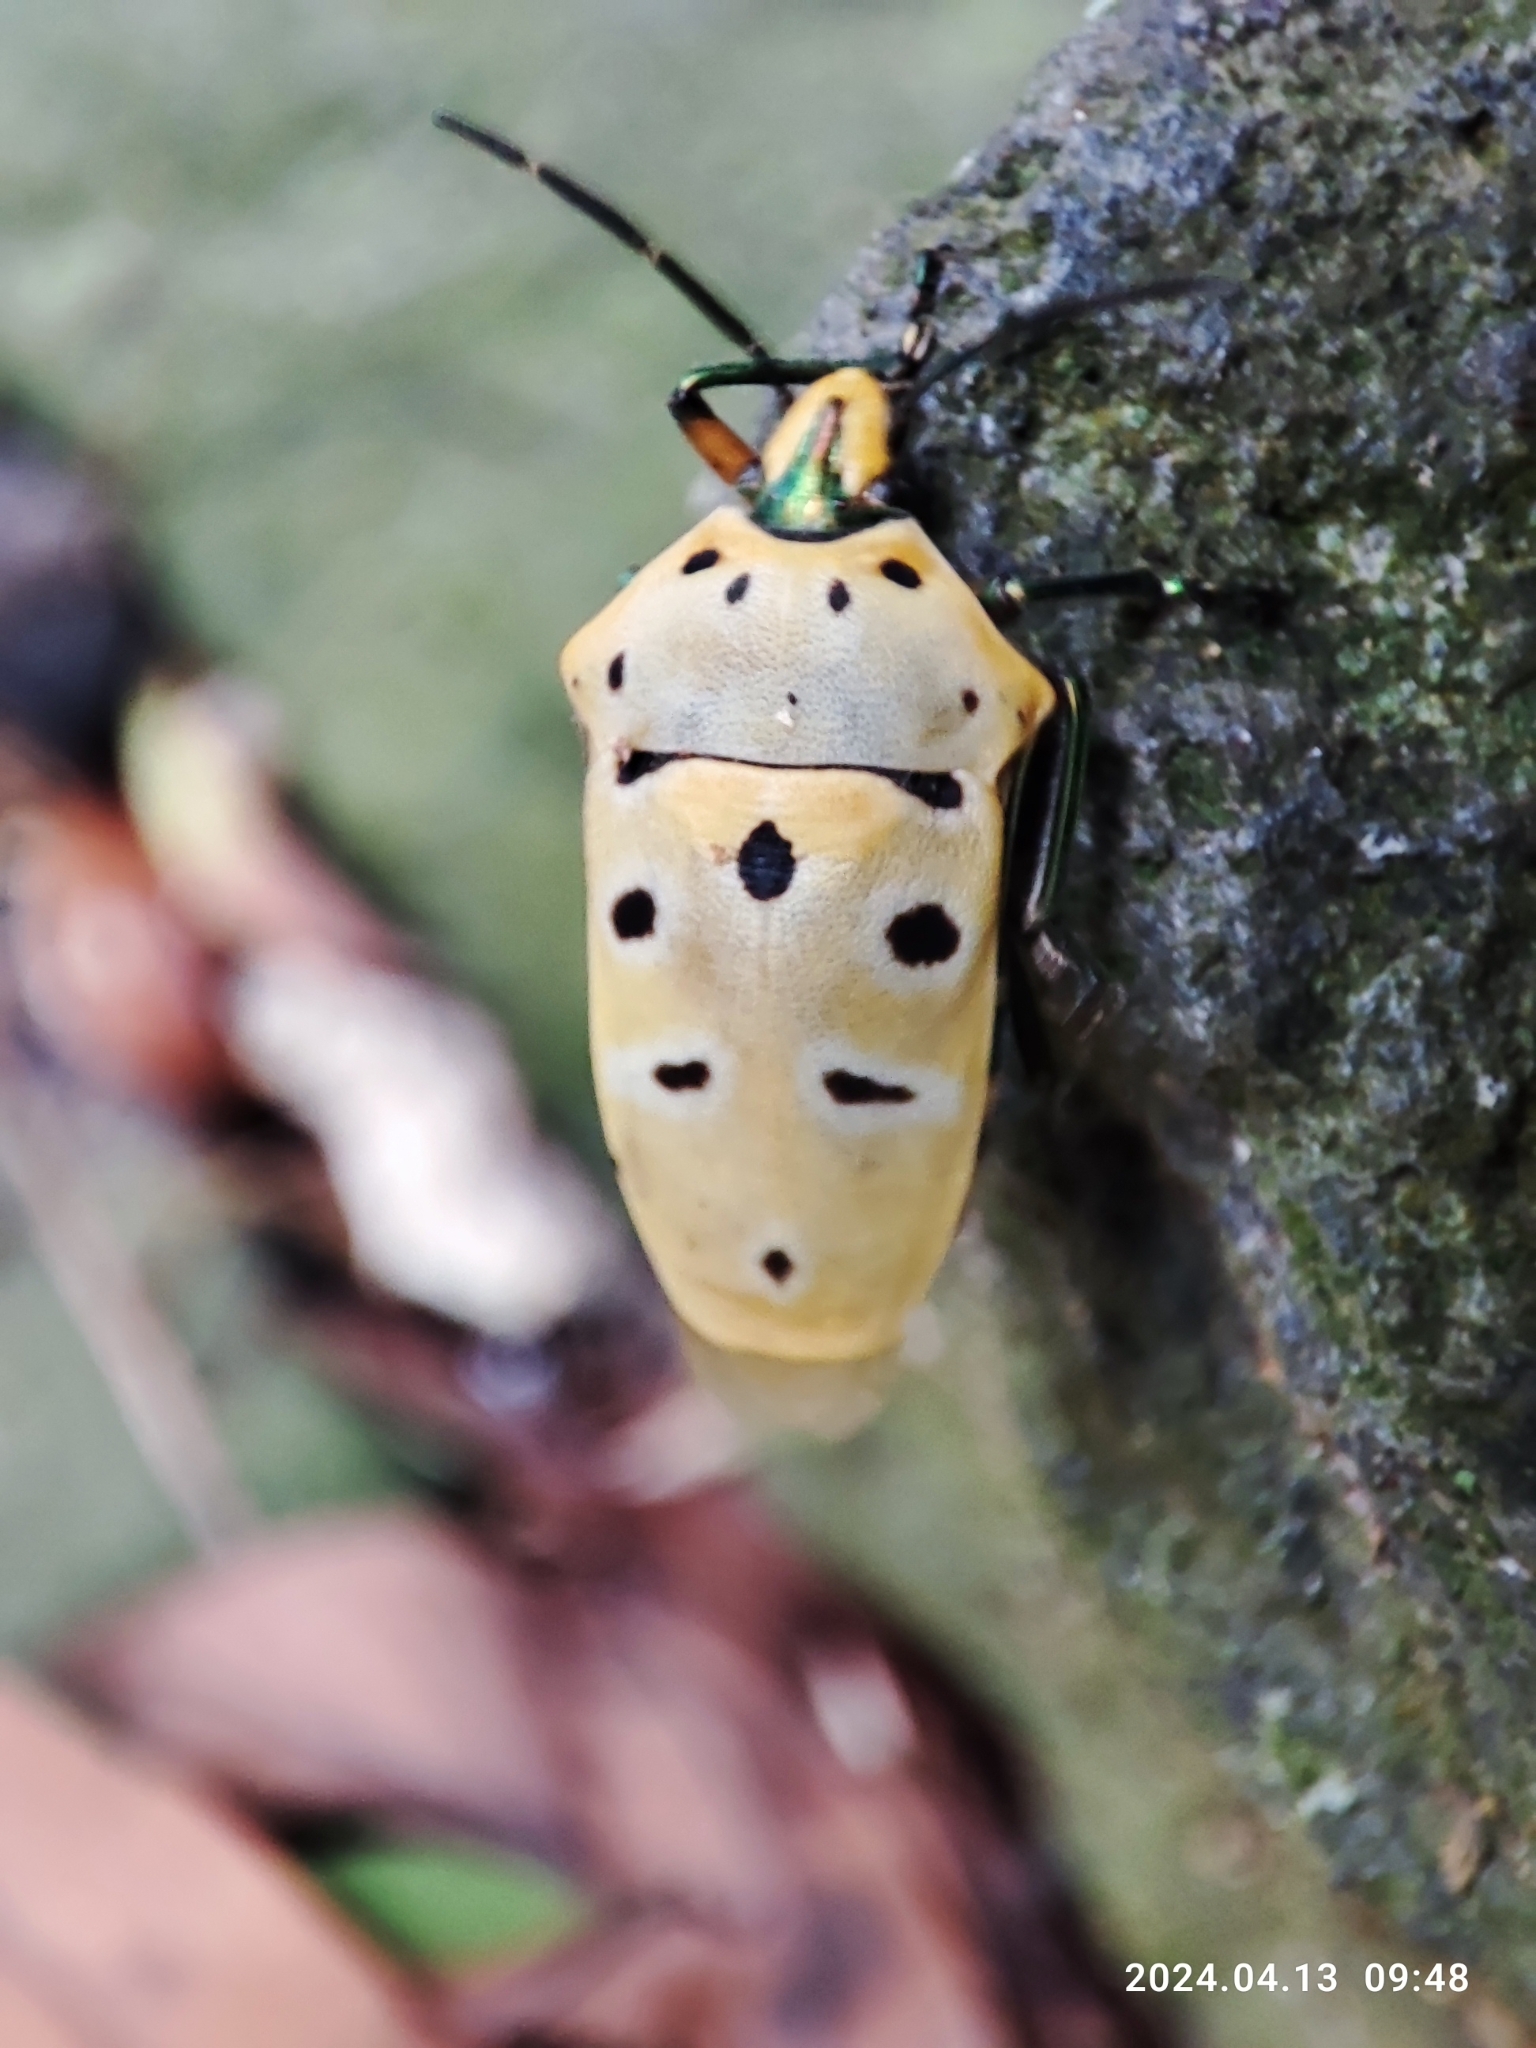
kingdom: Animalia
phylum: Arthropoda
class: Insecta
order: Hemiptera
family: Scutelleridae
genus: Cantao
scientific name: Cantao ocellatus
